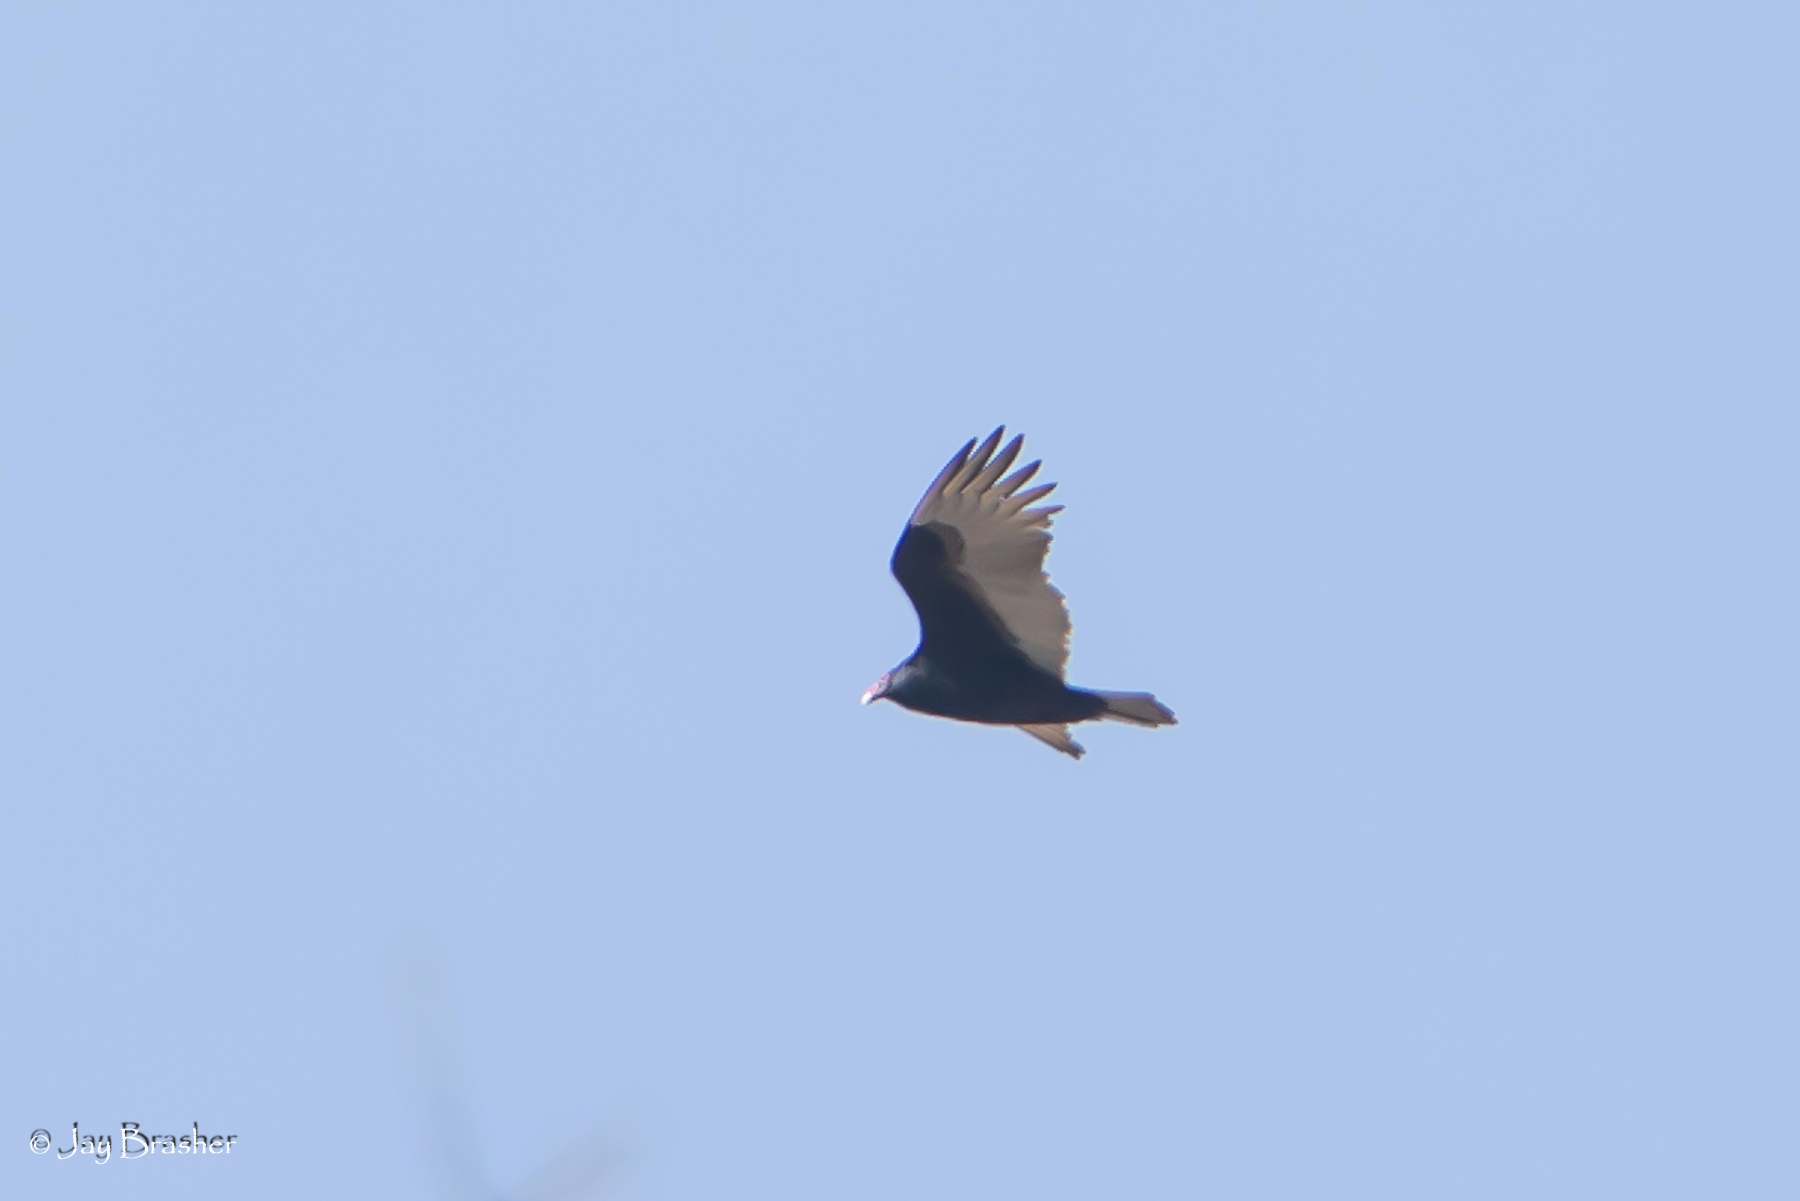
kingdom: Animalia
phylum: Chordata
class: Aves
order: Accipitriformes
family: Cathartidae
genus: Cathartes
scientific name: Cathartes aura
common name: Turkey vulture
